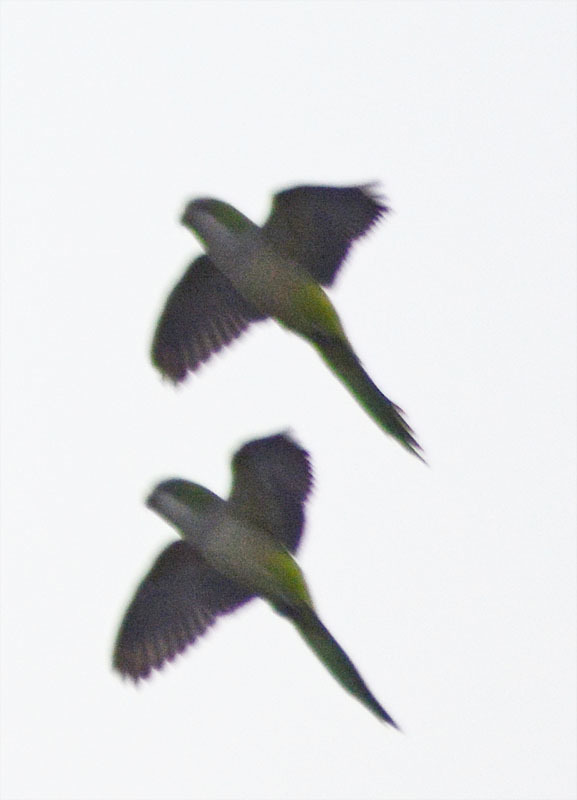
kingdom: Animalia
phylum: Chordata
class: Aves
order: Psittaciformes
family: Psittacidae
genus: Myiopsitta
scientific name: Myiopsitta monachus
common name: Monk parakeet
